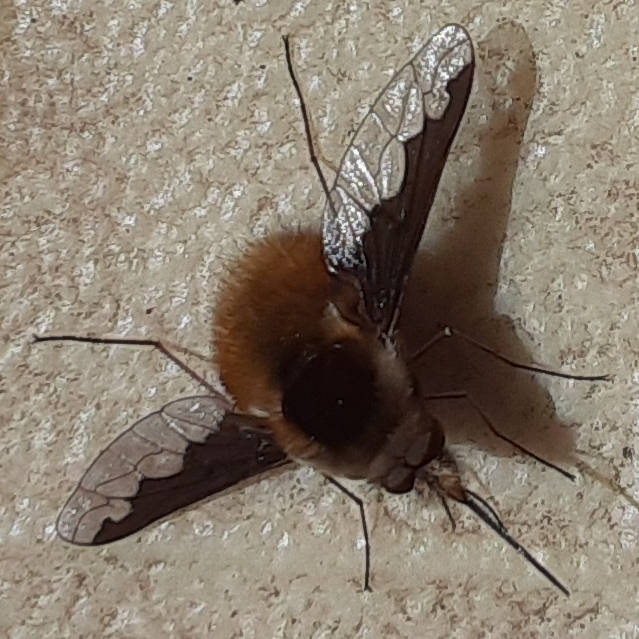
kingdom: Animalia
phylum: Arthropoda
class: Insecta
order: Diptera
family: Bombyliidae
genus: Bombylius
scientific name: Bombylius major
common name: Bee fly
